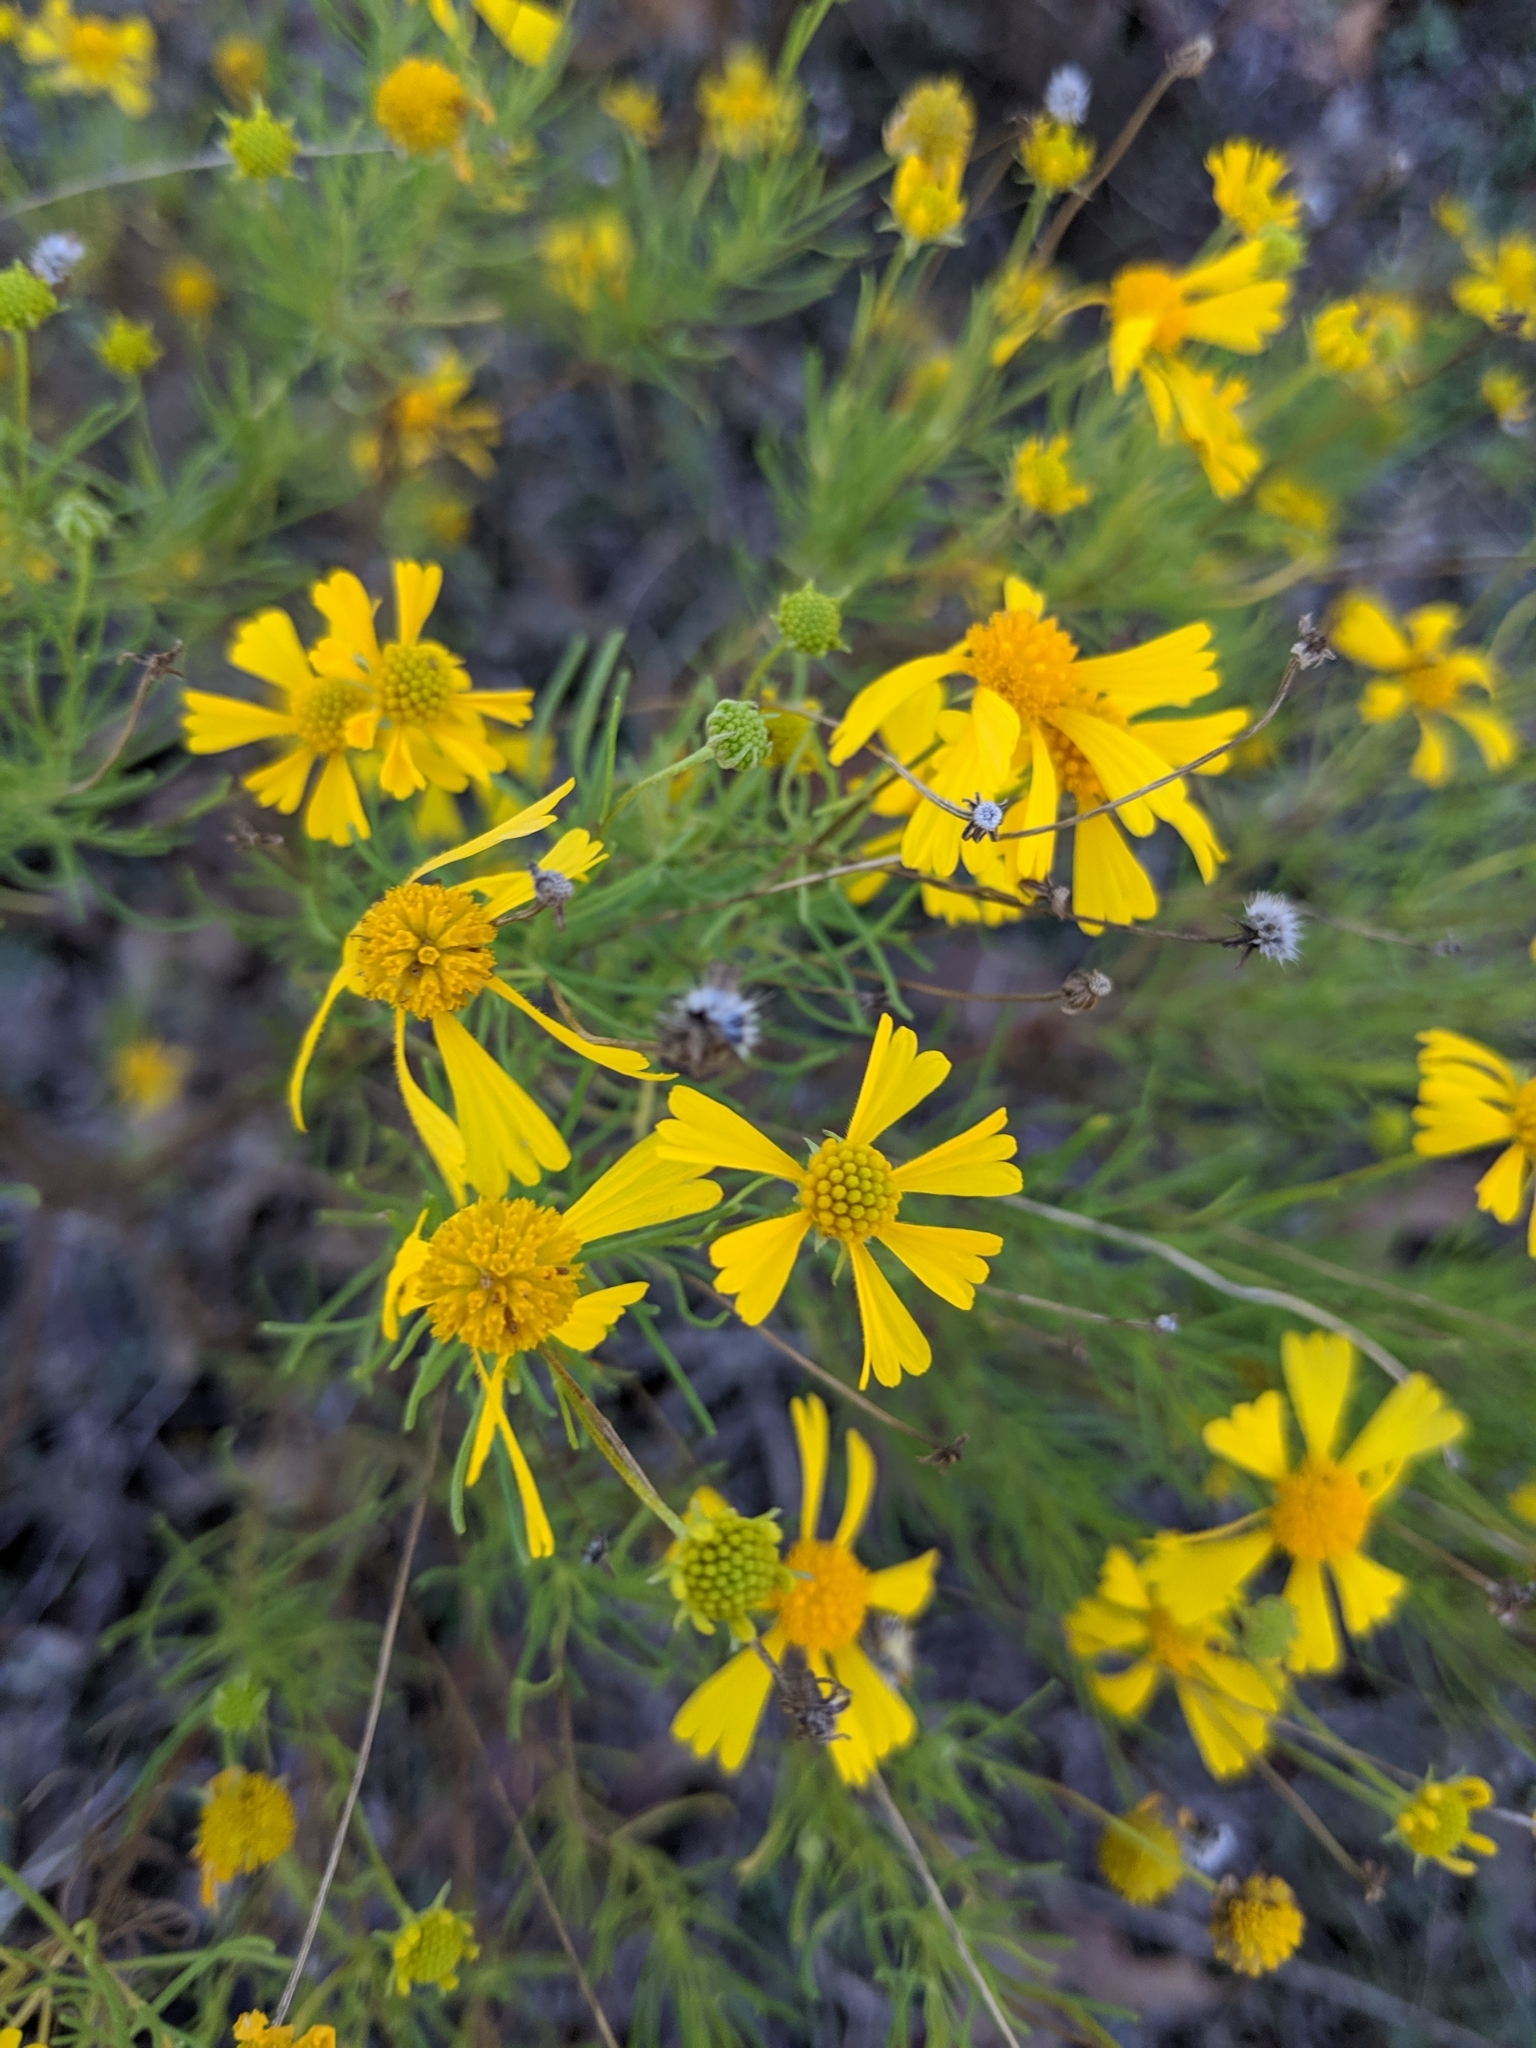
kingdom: Plantae
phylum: Tracheophyta
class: Magnoliopsida
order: Asterales
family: Asteraceae
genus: Helenium
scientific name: Helenium amarum
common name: Bitter sneezeweed
